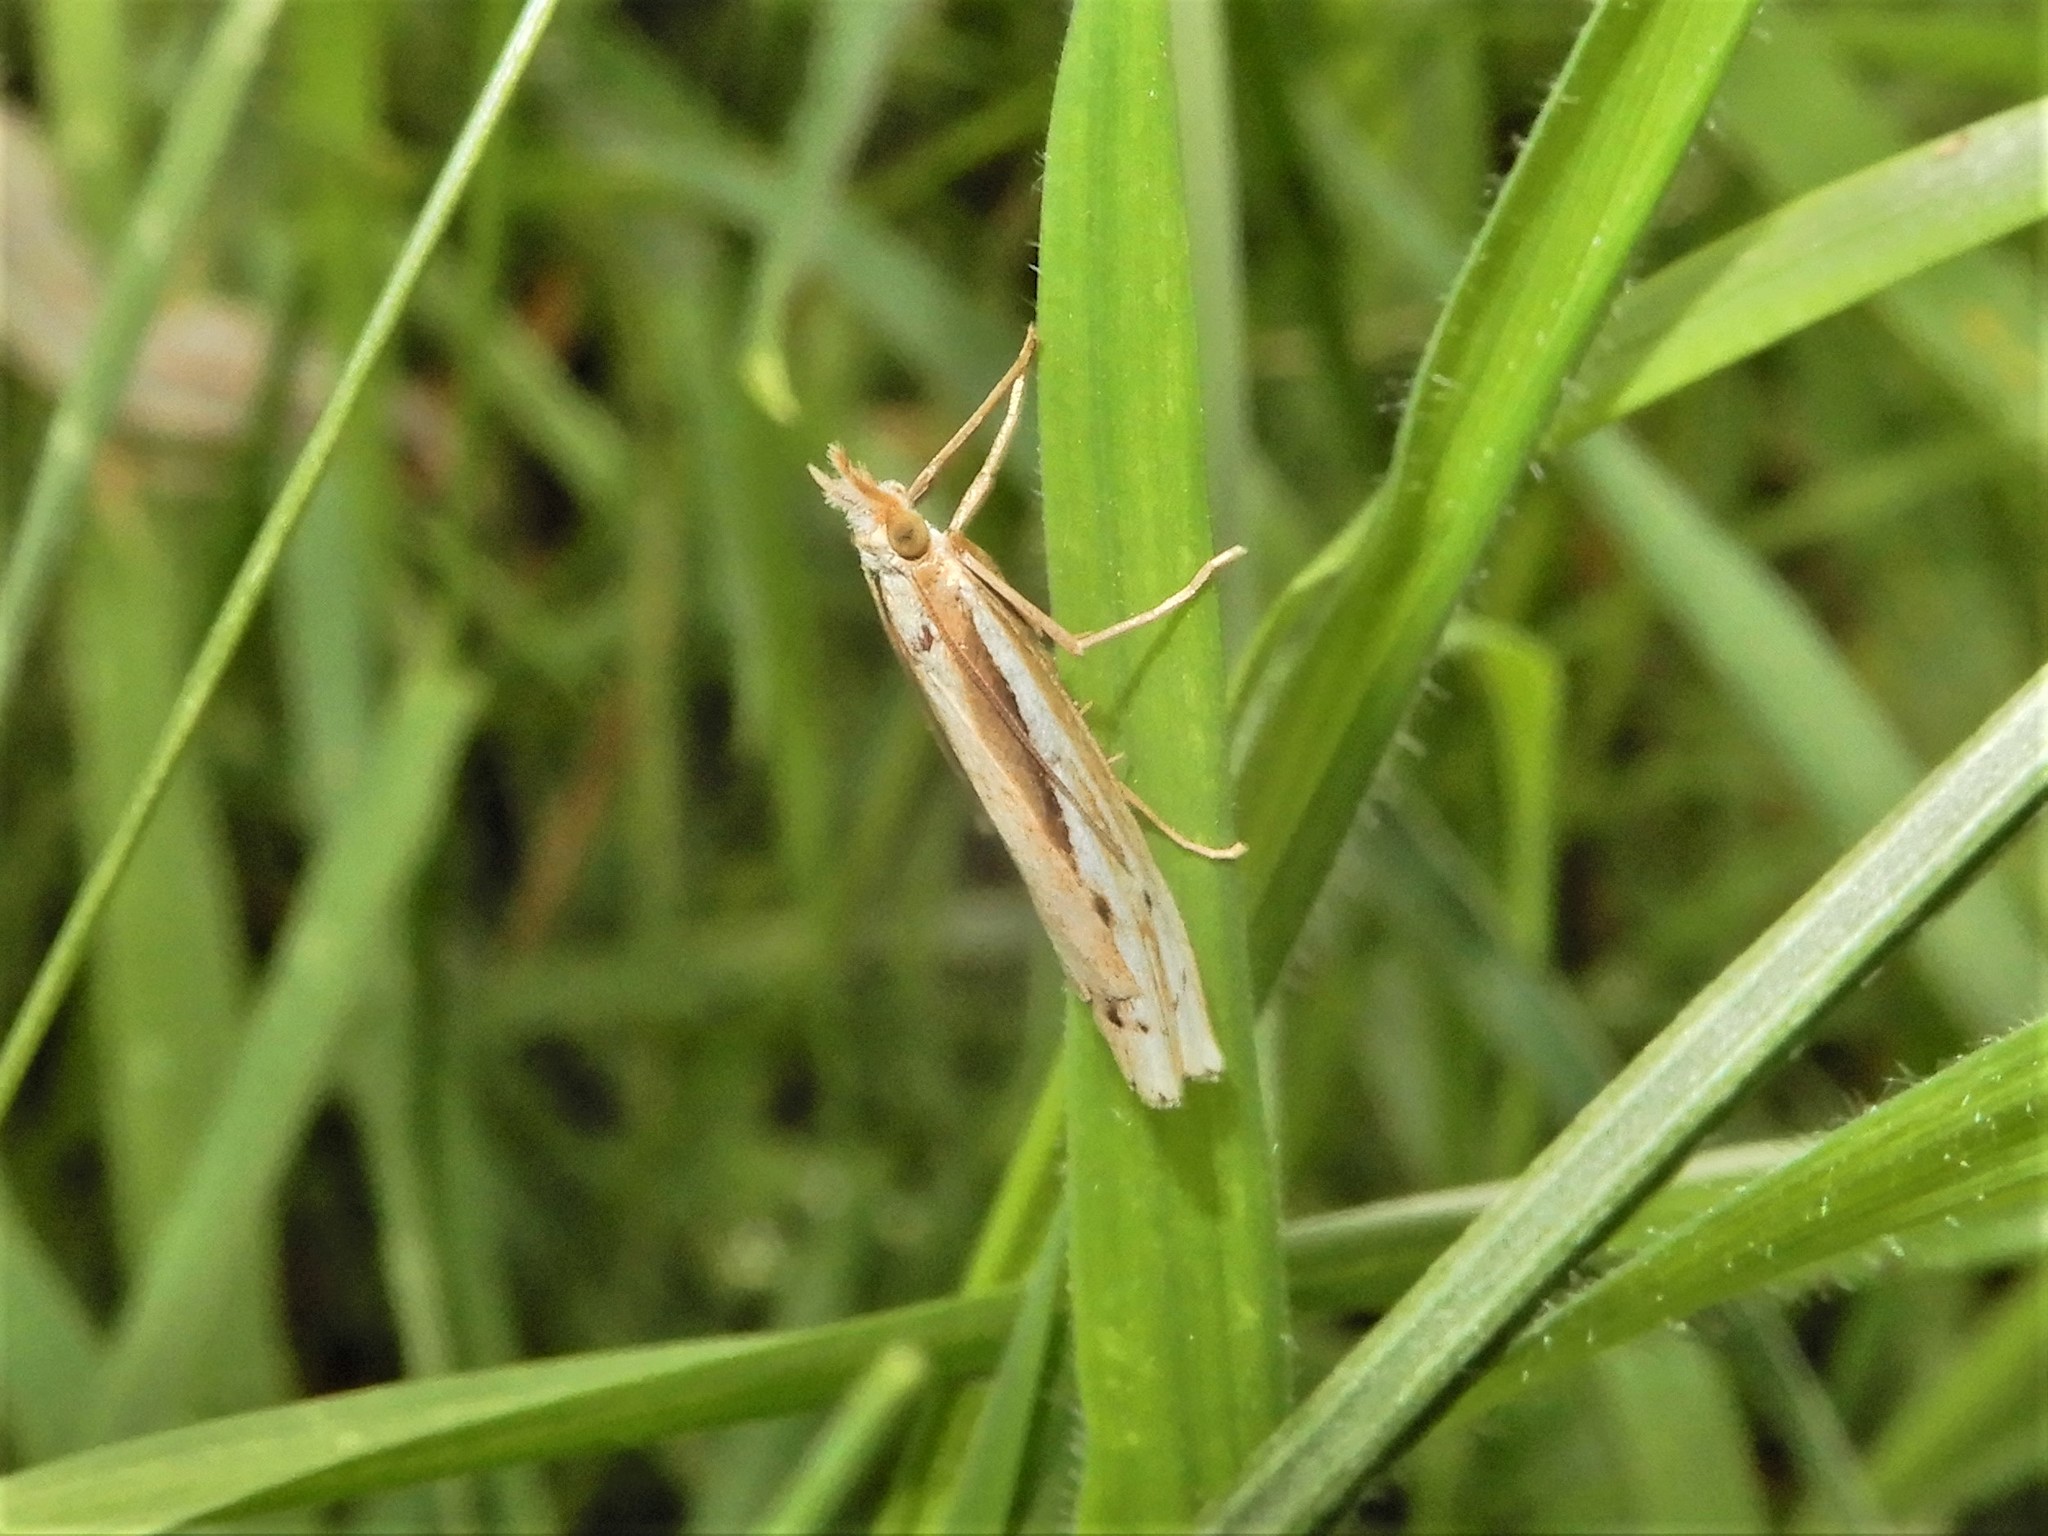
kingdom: Animalia
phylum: Arthropoda
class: Insecta
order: Lepidoptera
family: Crambidae
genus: Orocrambus
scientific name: Orocrambus ramosellus
